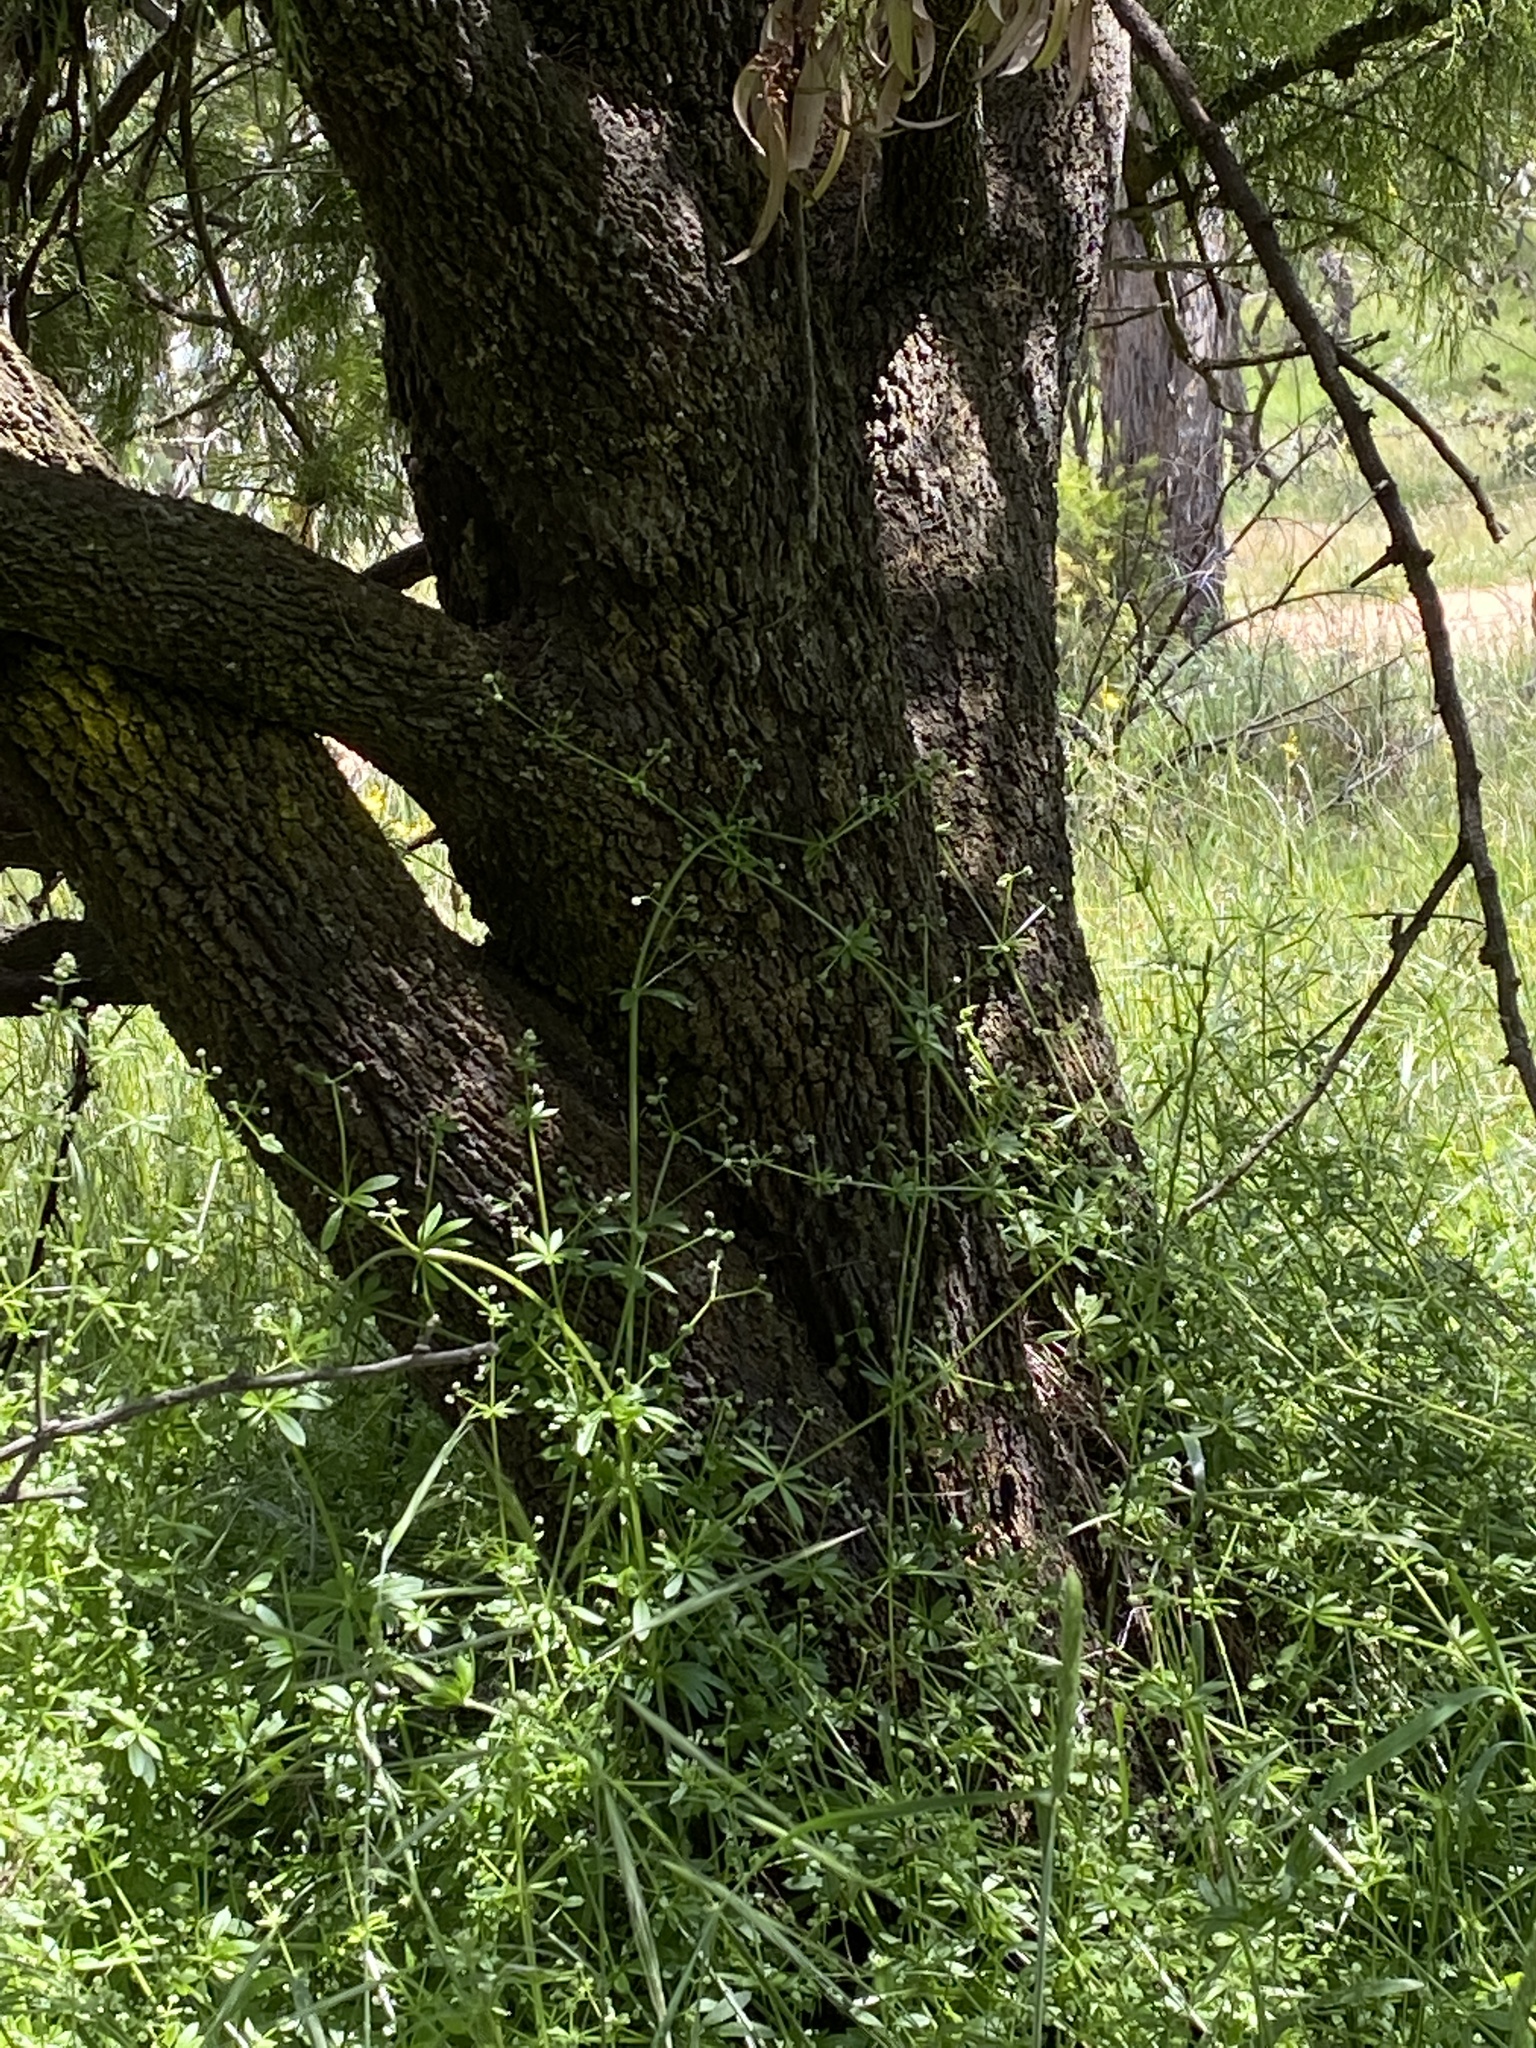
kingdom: Plantae
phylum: Tracheophyta
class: Magnoliopsida
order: Santalales
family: Santalaceae
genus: Exocarpos
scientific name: Exocarpos cupressiformis
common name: Cherry ballart
